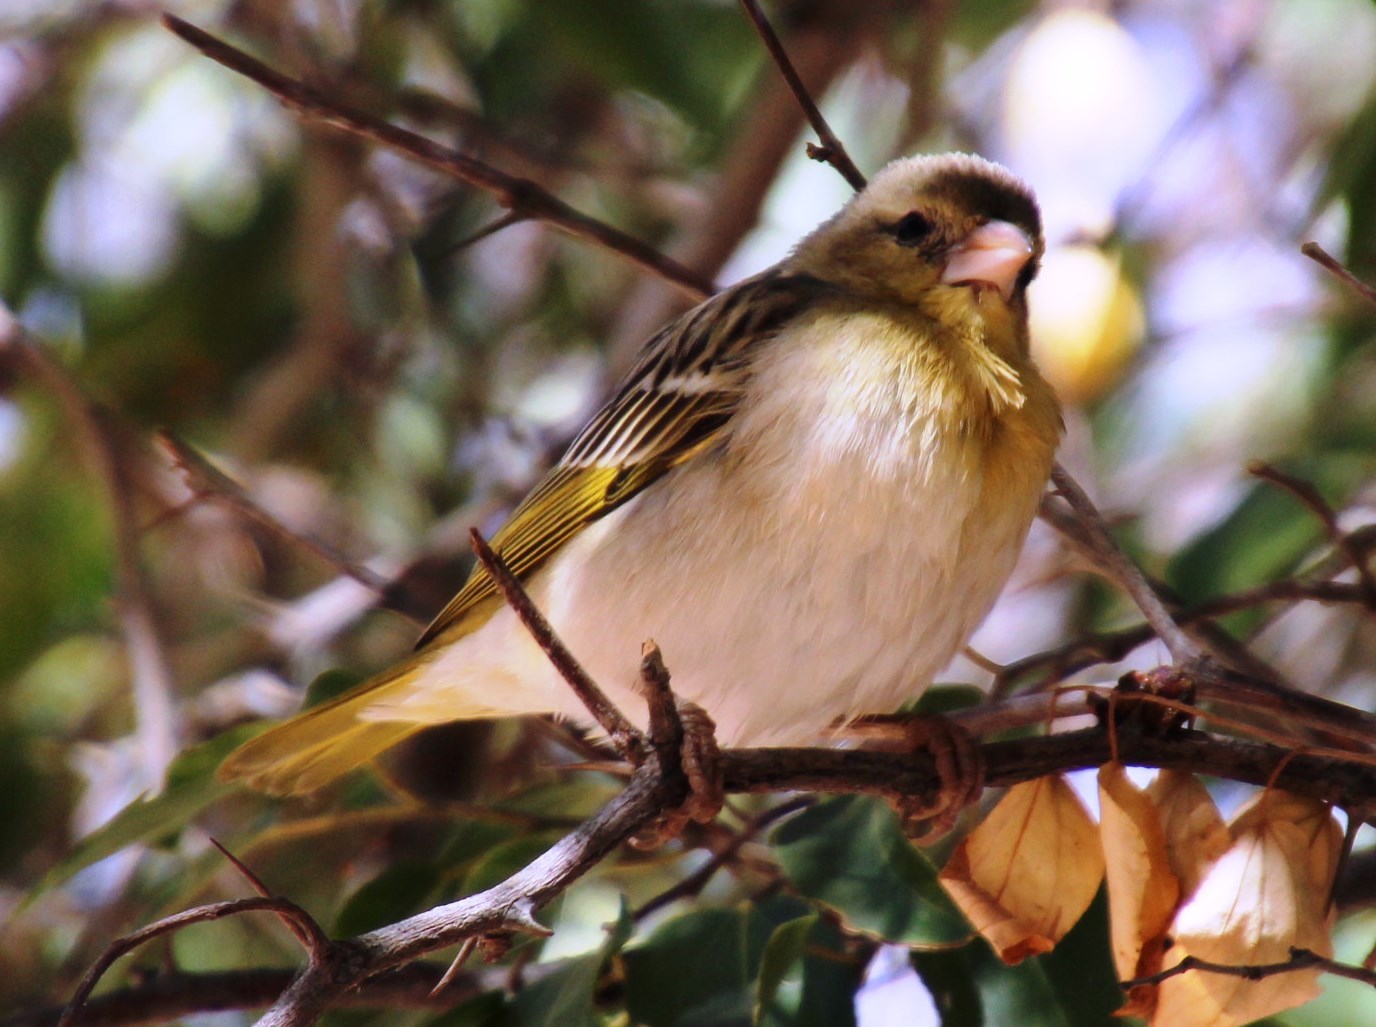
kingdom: Animalia
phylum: Chordata
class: Aves
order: Passeriformes
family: Ploceidae
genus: Ploceus
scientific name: Ploceus velatus
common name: Southern masked weaver
